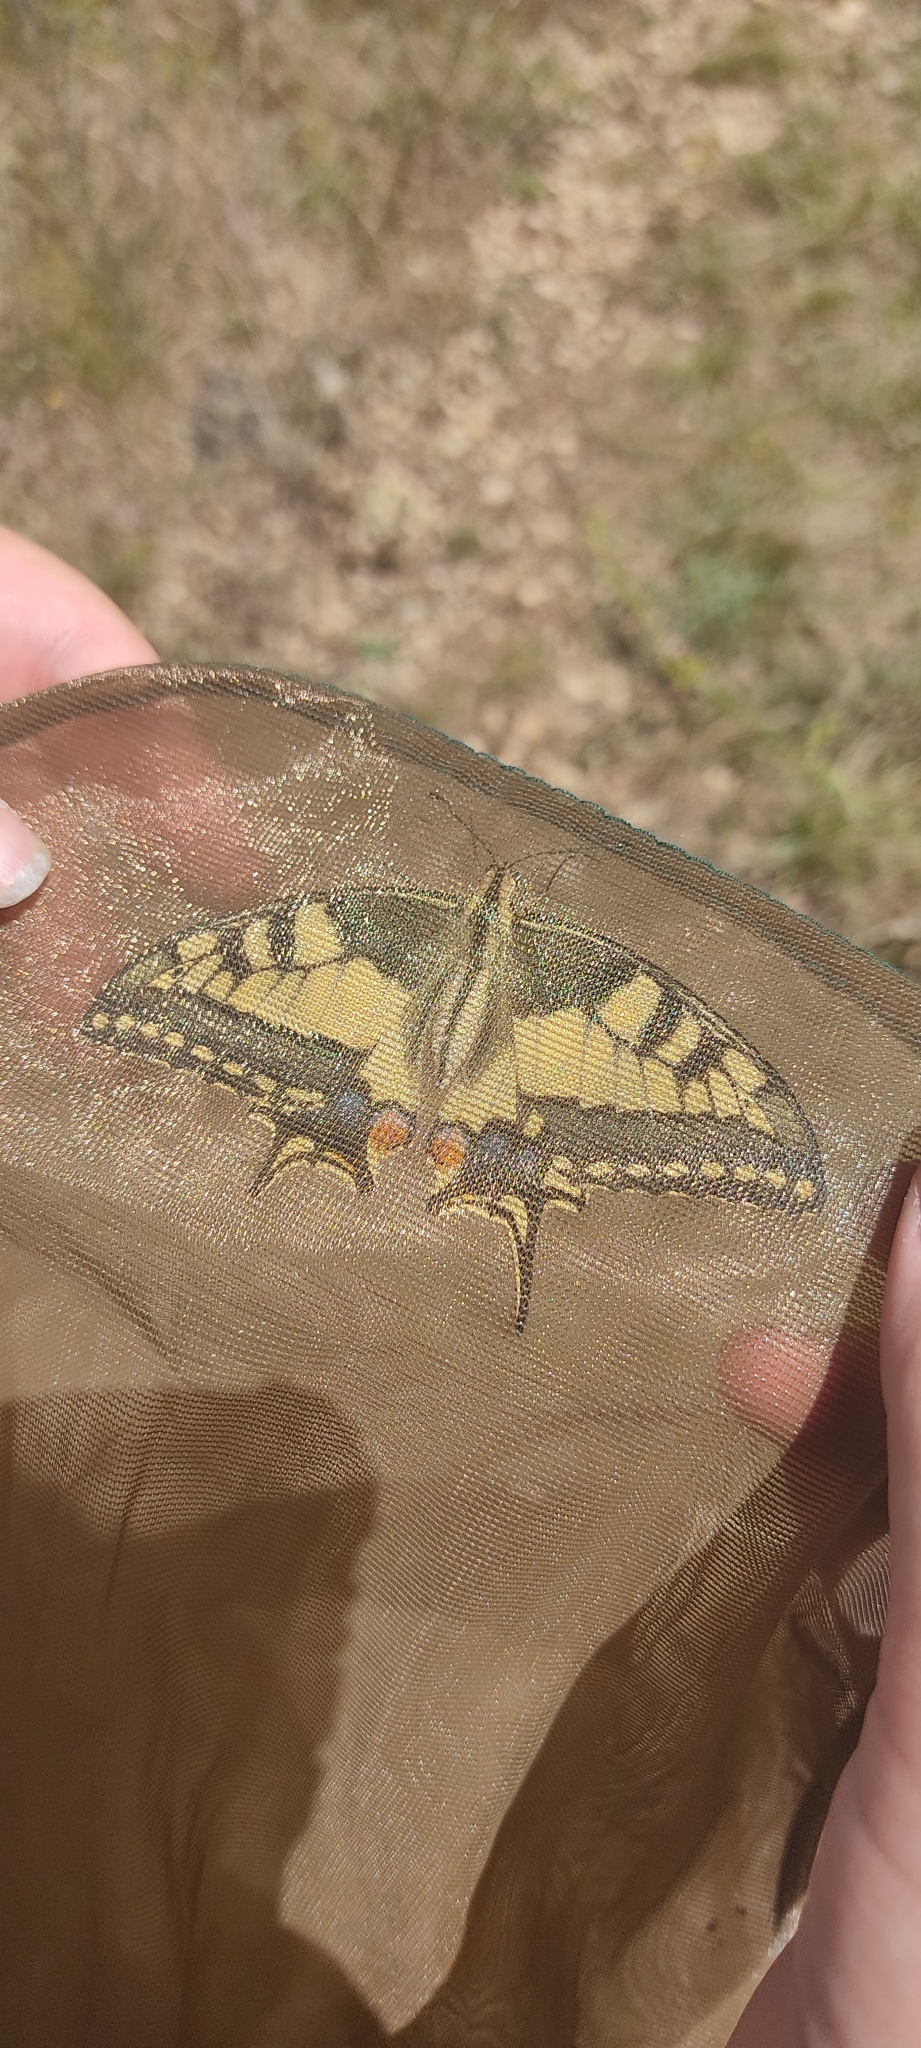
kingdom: Animalia
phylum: Arthropoda
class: Insecta
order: Lepidoptera
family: Papilionidae
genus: Papilio
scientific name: Papilio machaon
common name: Swallowtail
